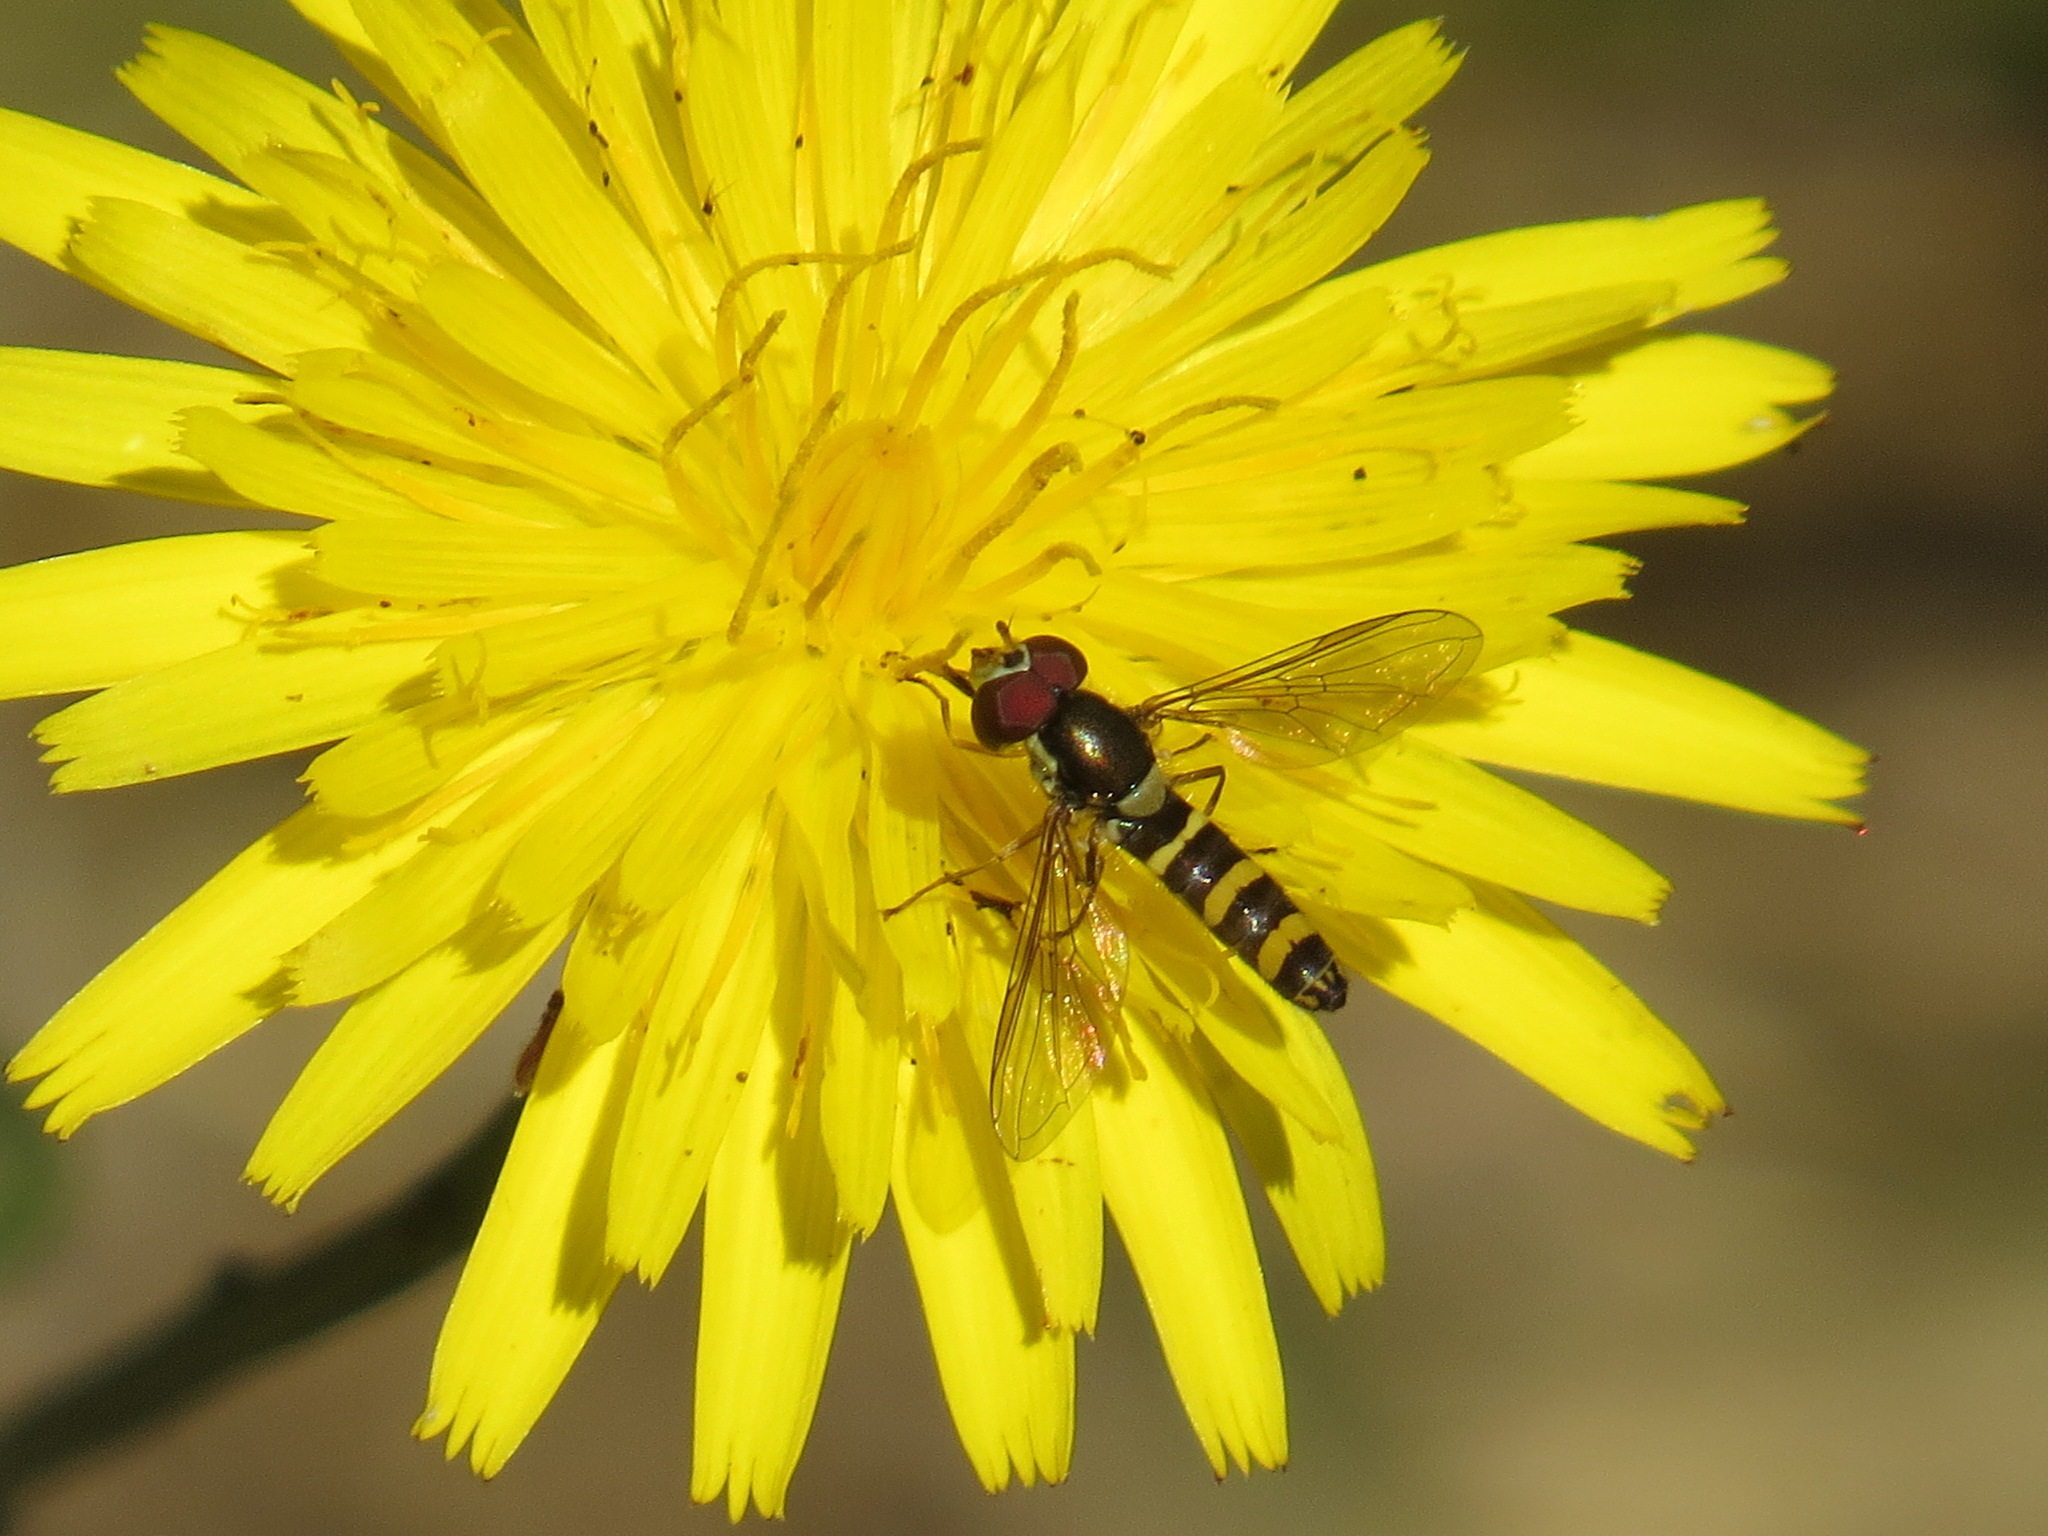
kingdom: Animalia
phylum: Arthropoda
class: Insecta
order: Diptera
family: Syrphidae
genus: Fazia
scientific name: Fazia micrura
